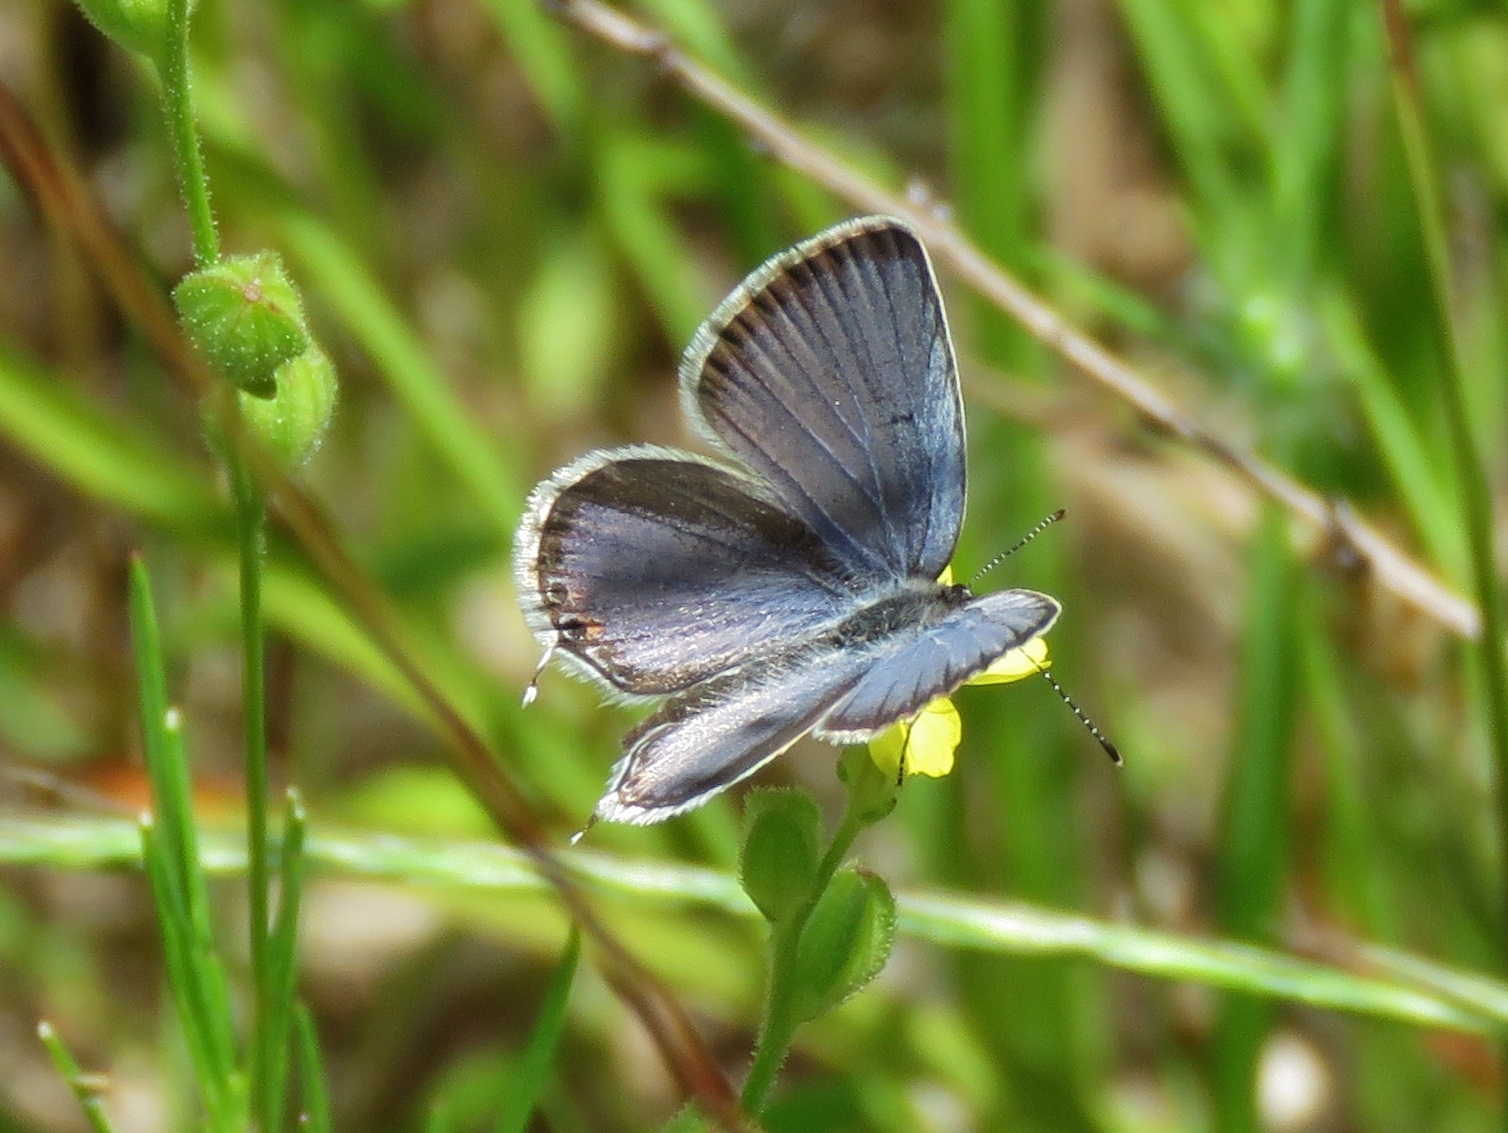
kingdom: Animalia
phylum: Arthropoda
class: Insecta
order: Lepidoptera
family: Lycaenidae
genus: Elkalyce
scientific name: Elkalyce comyntas
